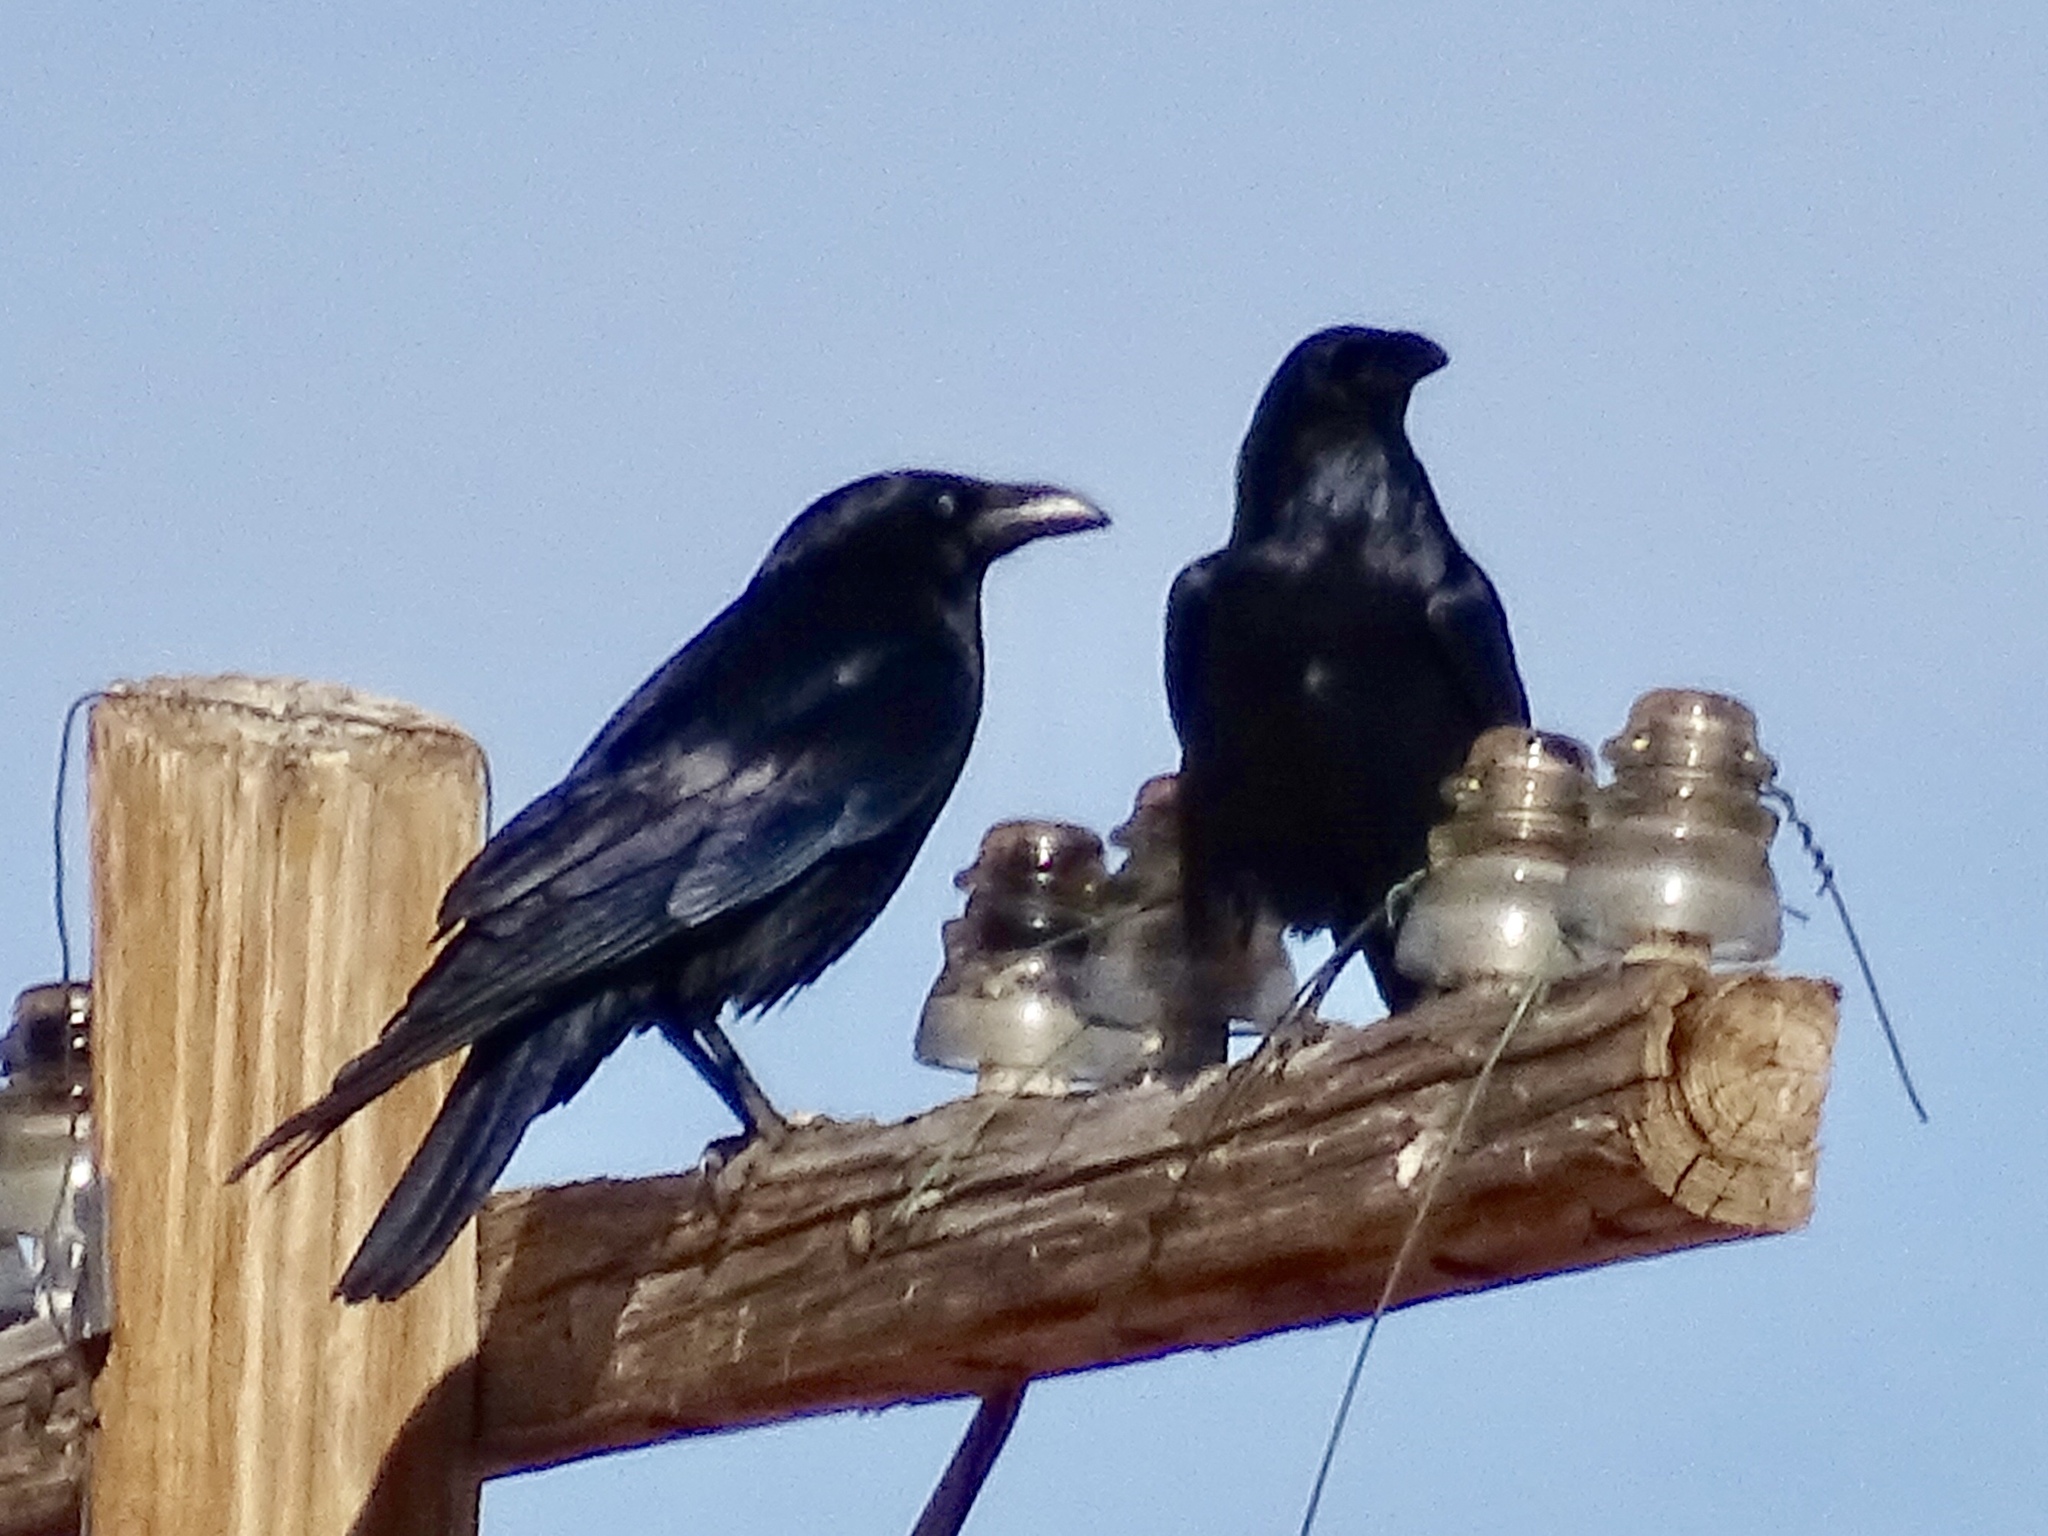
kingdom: Animalia
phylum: Chordata
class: Aves
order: Passeriformes
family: Corvidae
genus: Corvus
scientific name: Corvus corax
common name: Common raven
